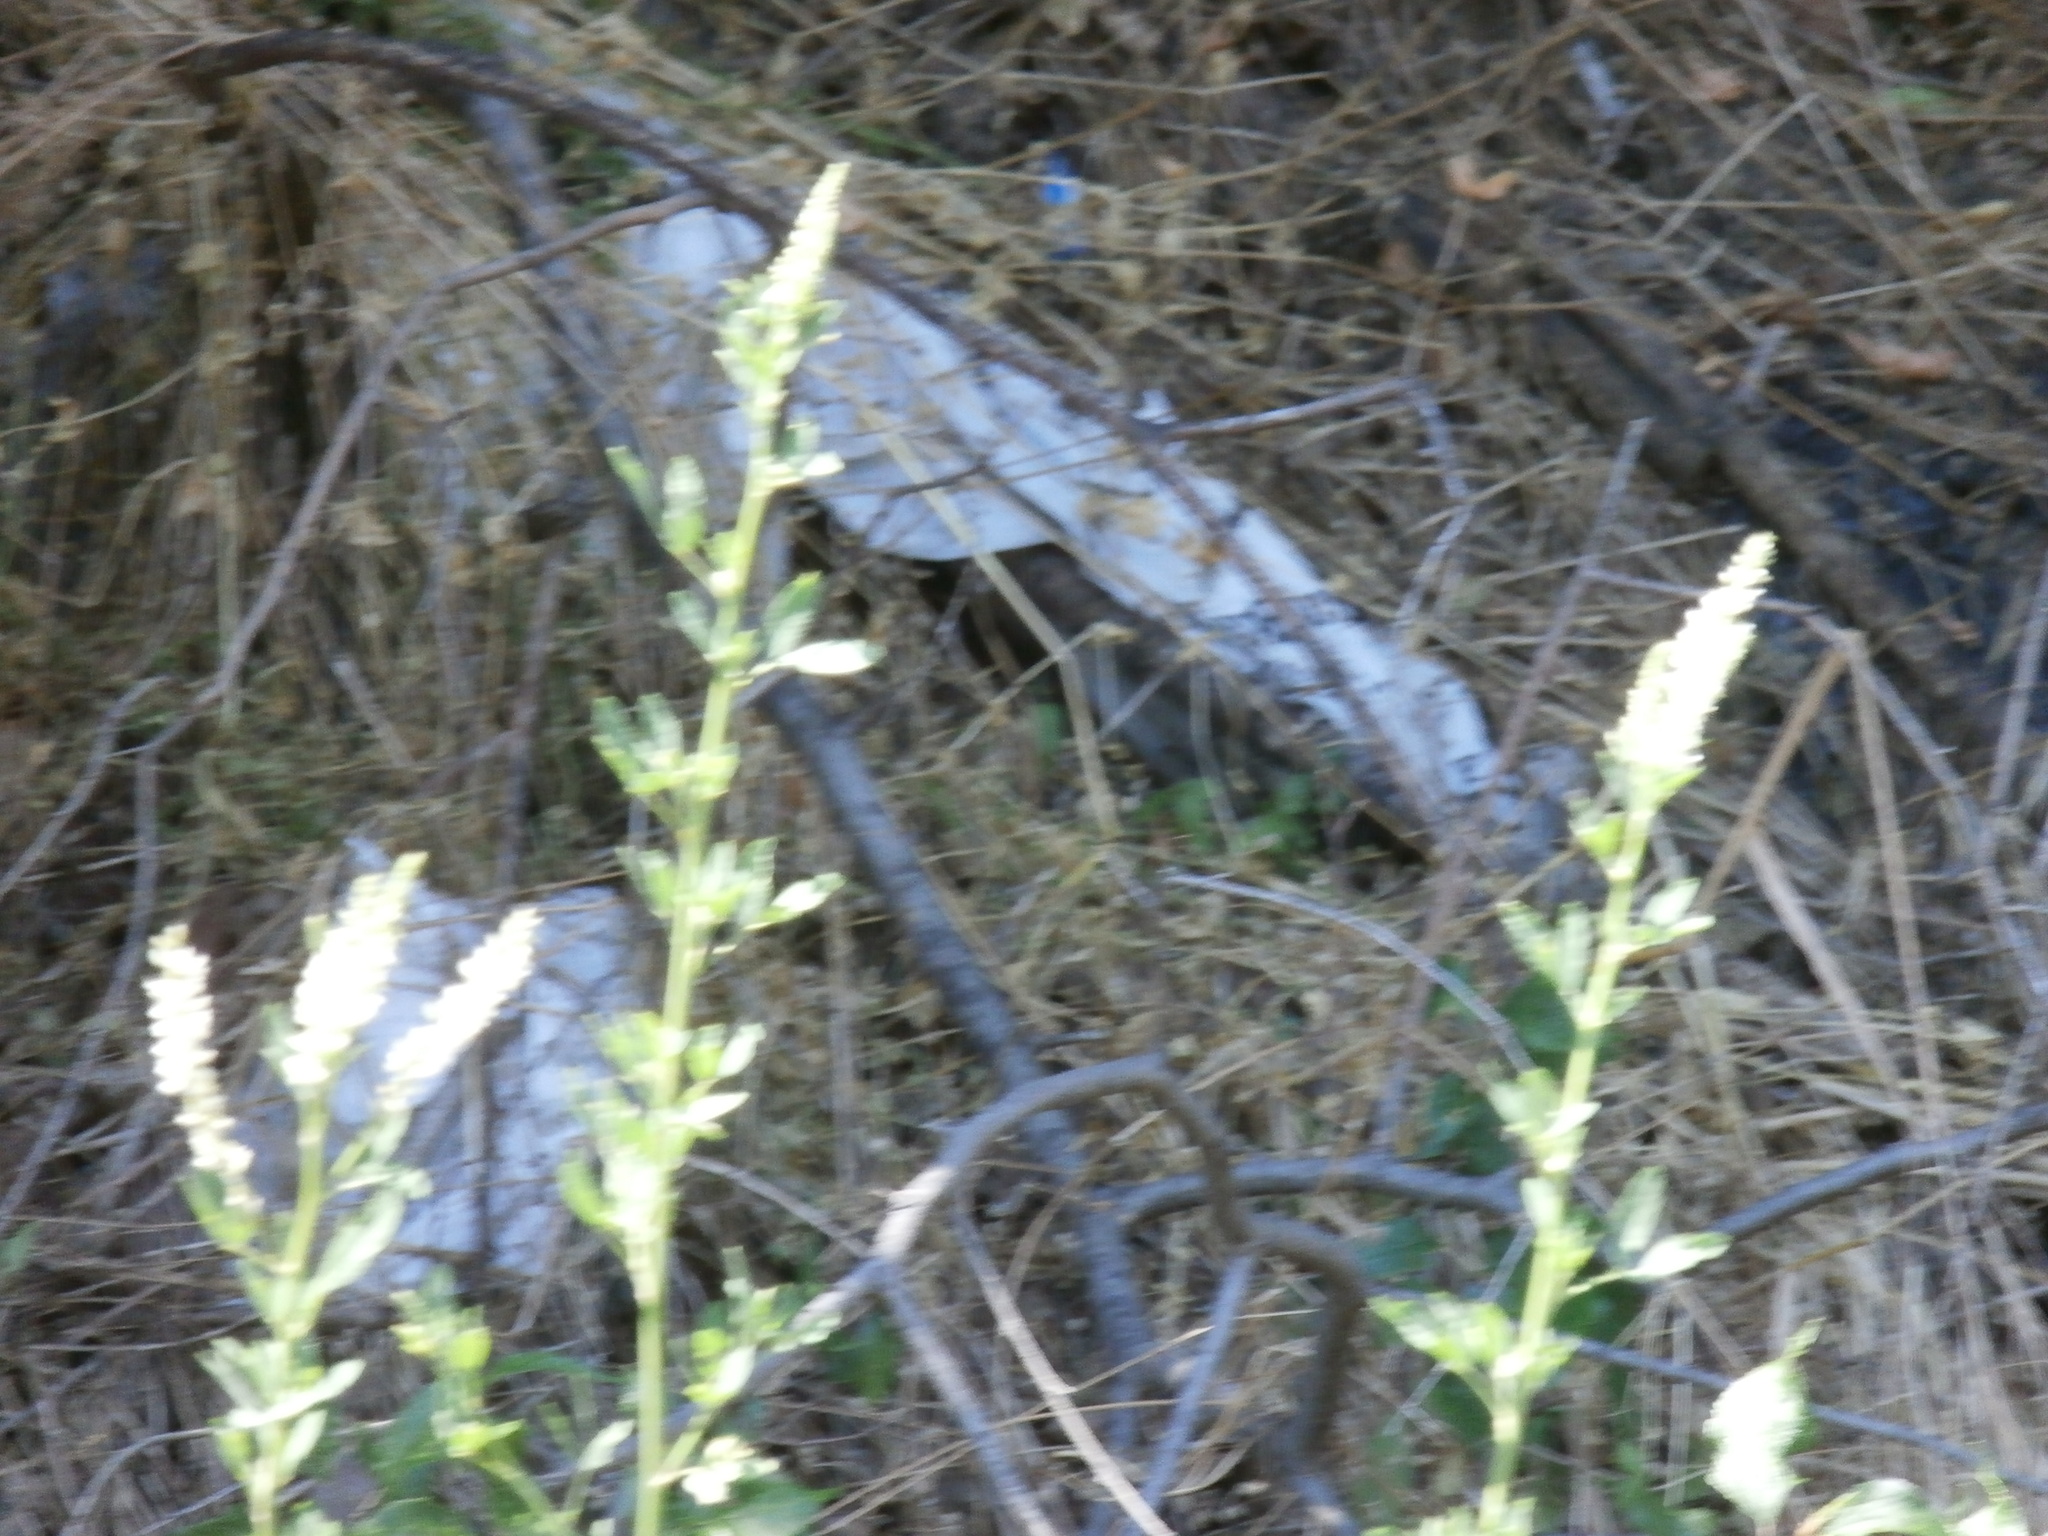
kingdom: Plantae
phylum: Tracheophyta
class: Magnoliopsida
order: Fabales
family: Fabaceae
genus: Melilotus
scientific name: Melilotus albus
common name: White melilot
